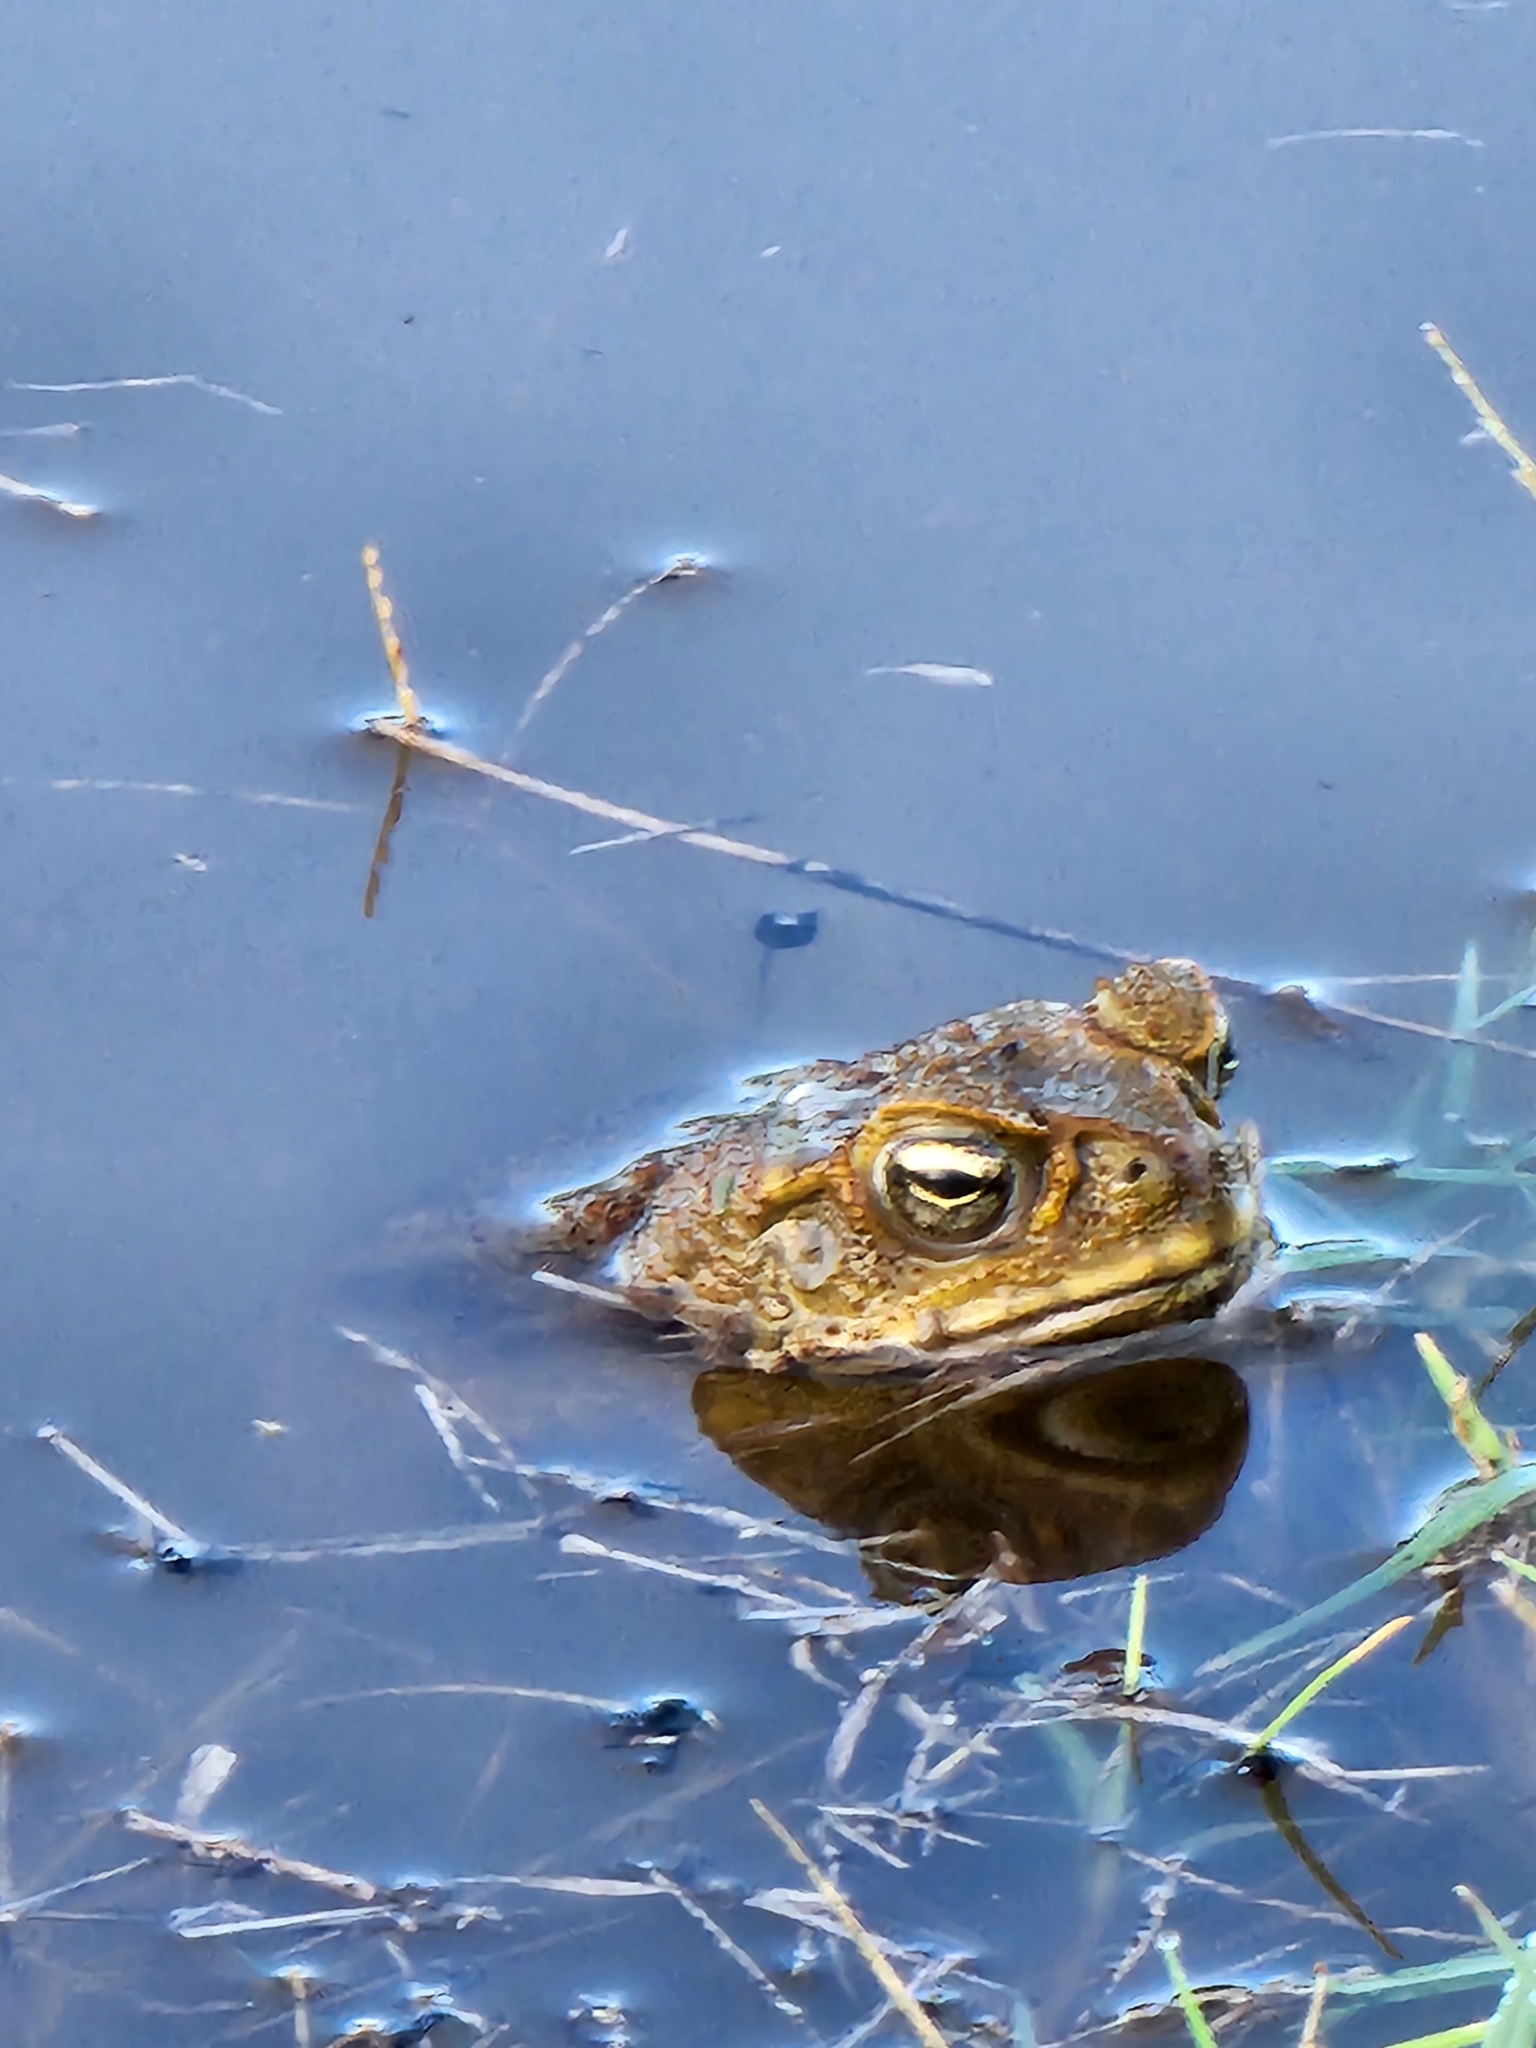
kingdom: Animalia
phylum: Chordata
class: Amphibia
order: Anura
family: Bufonidae
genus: Rhinella
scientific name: Rhinella marina
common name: Cane toad
